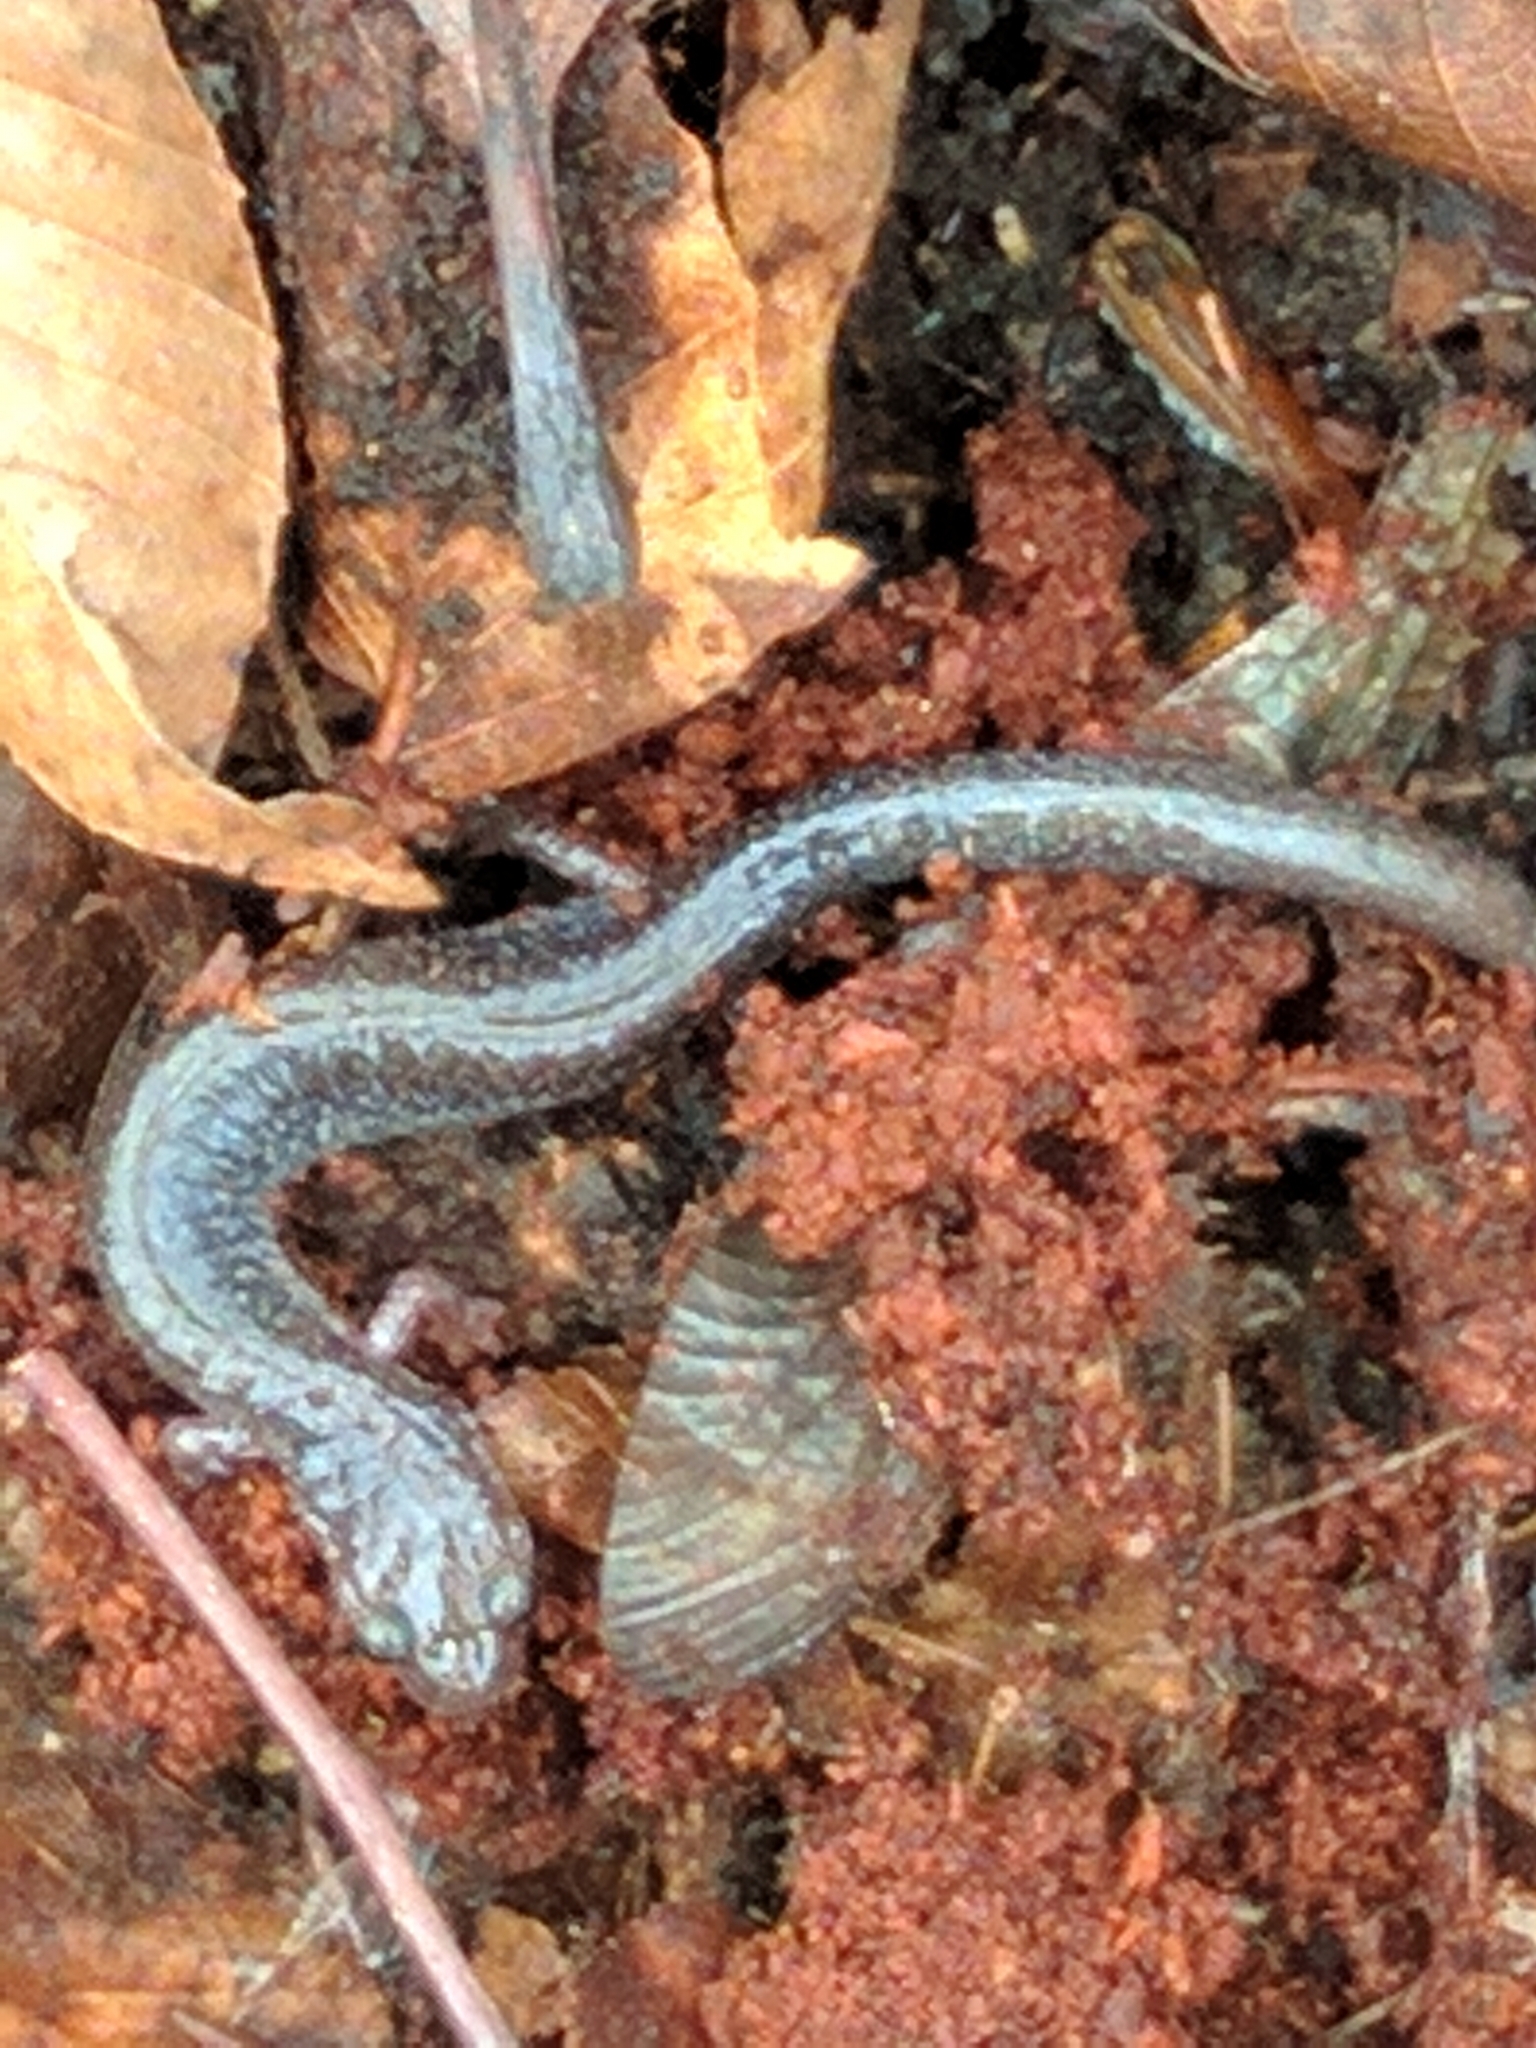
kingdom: Animalia
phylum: Chordata
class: Amphibia
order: Caudata
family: Plethodontidae
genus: Plethodon
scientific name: Plethodon cinereus
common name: Redback salamander
